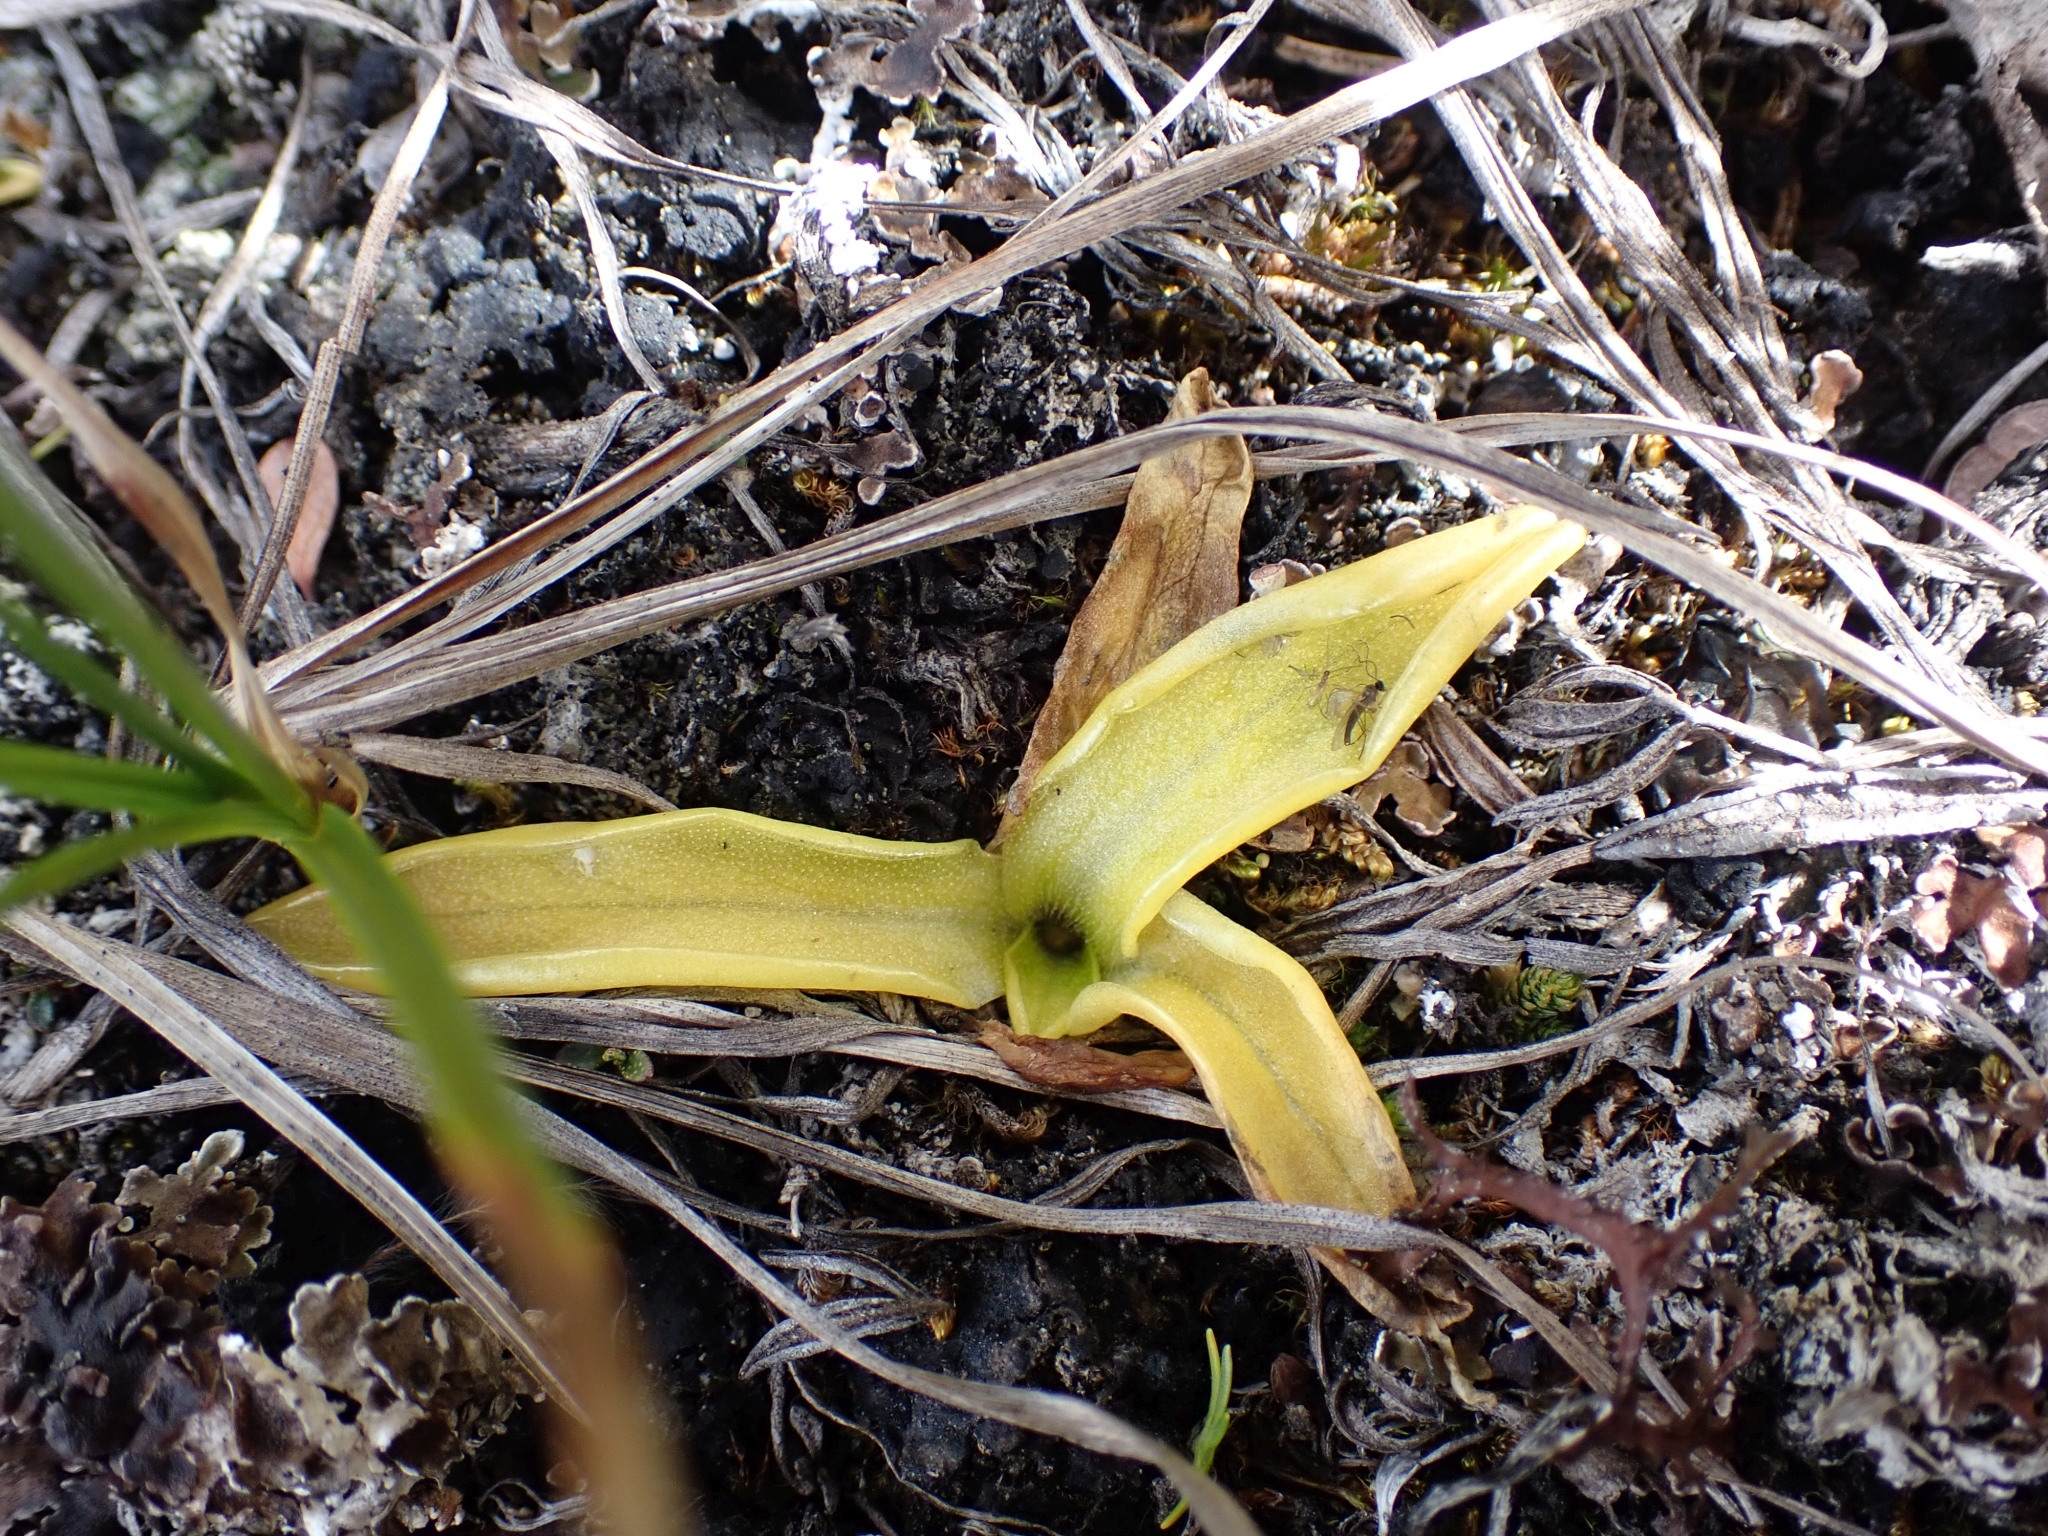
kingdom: Plantae
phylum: Tracheophyta
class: Magnoliopsida
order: Lamiales
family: Lentibulariaceae
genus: Pinguicula
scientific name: Pinguicula vulgaris
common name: Common butterwort
